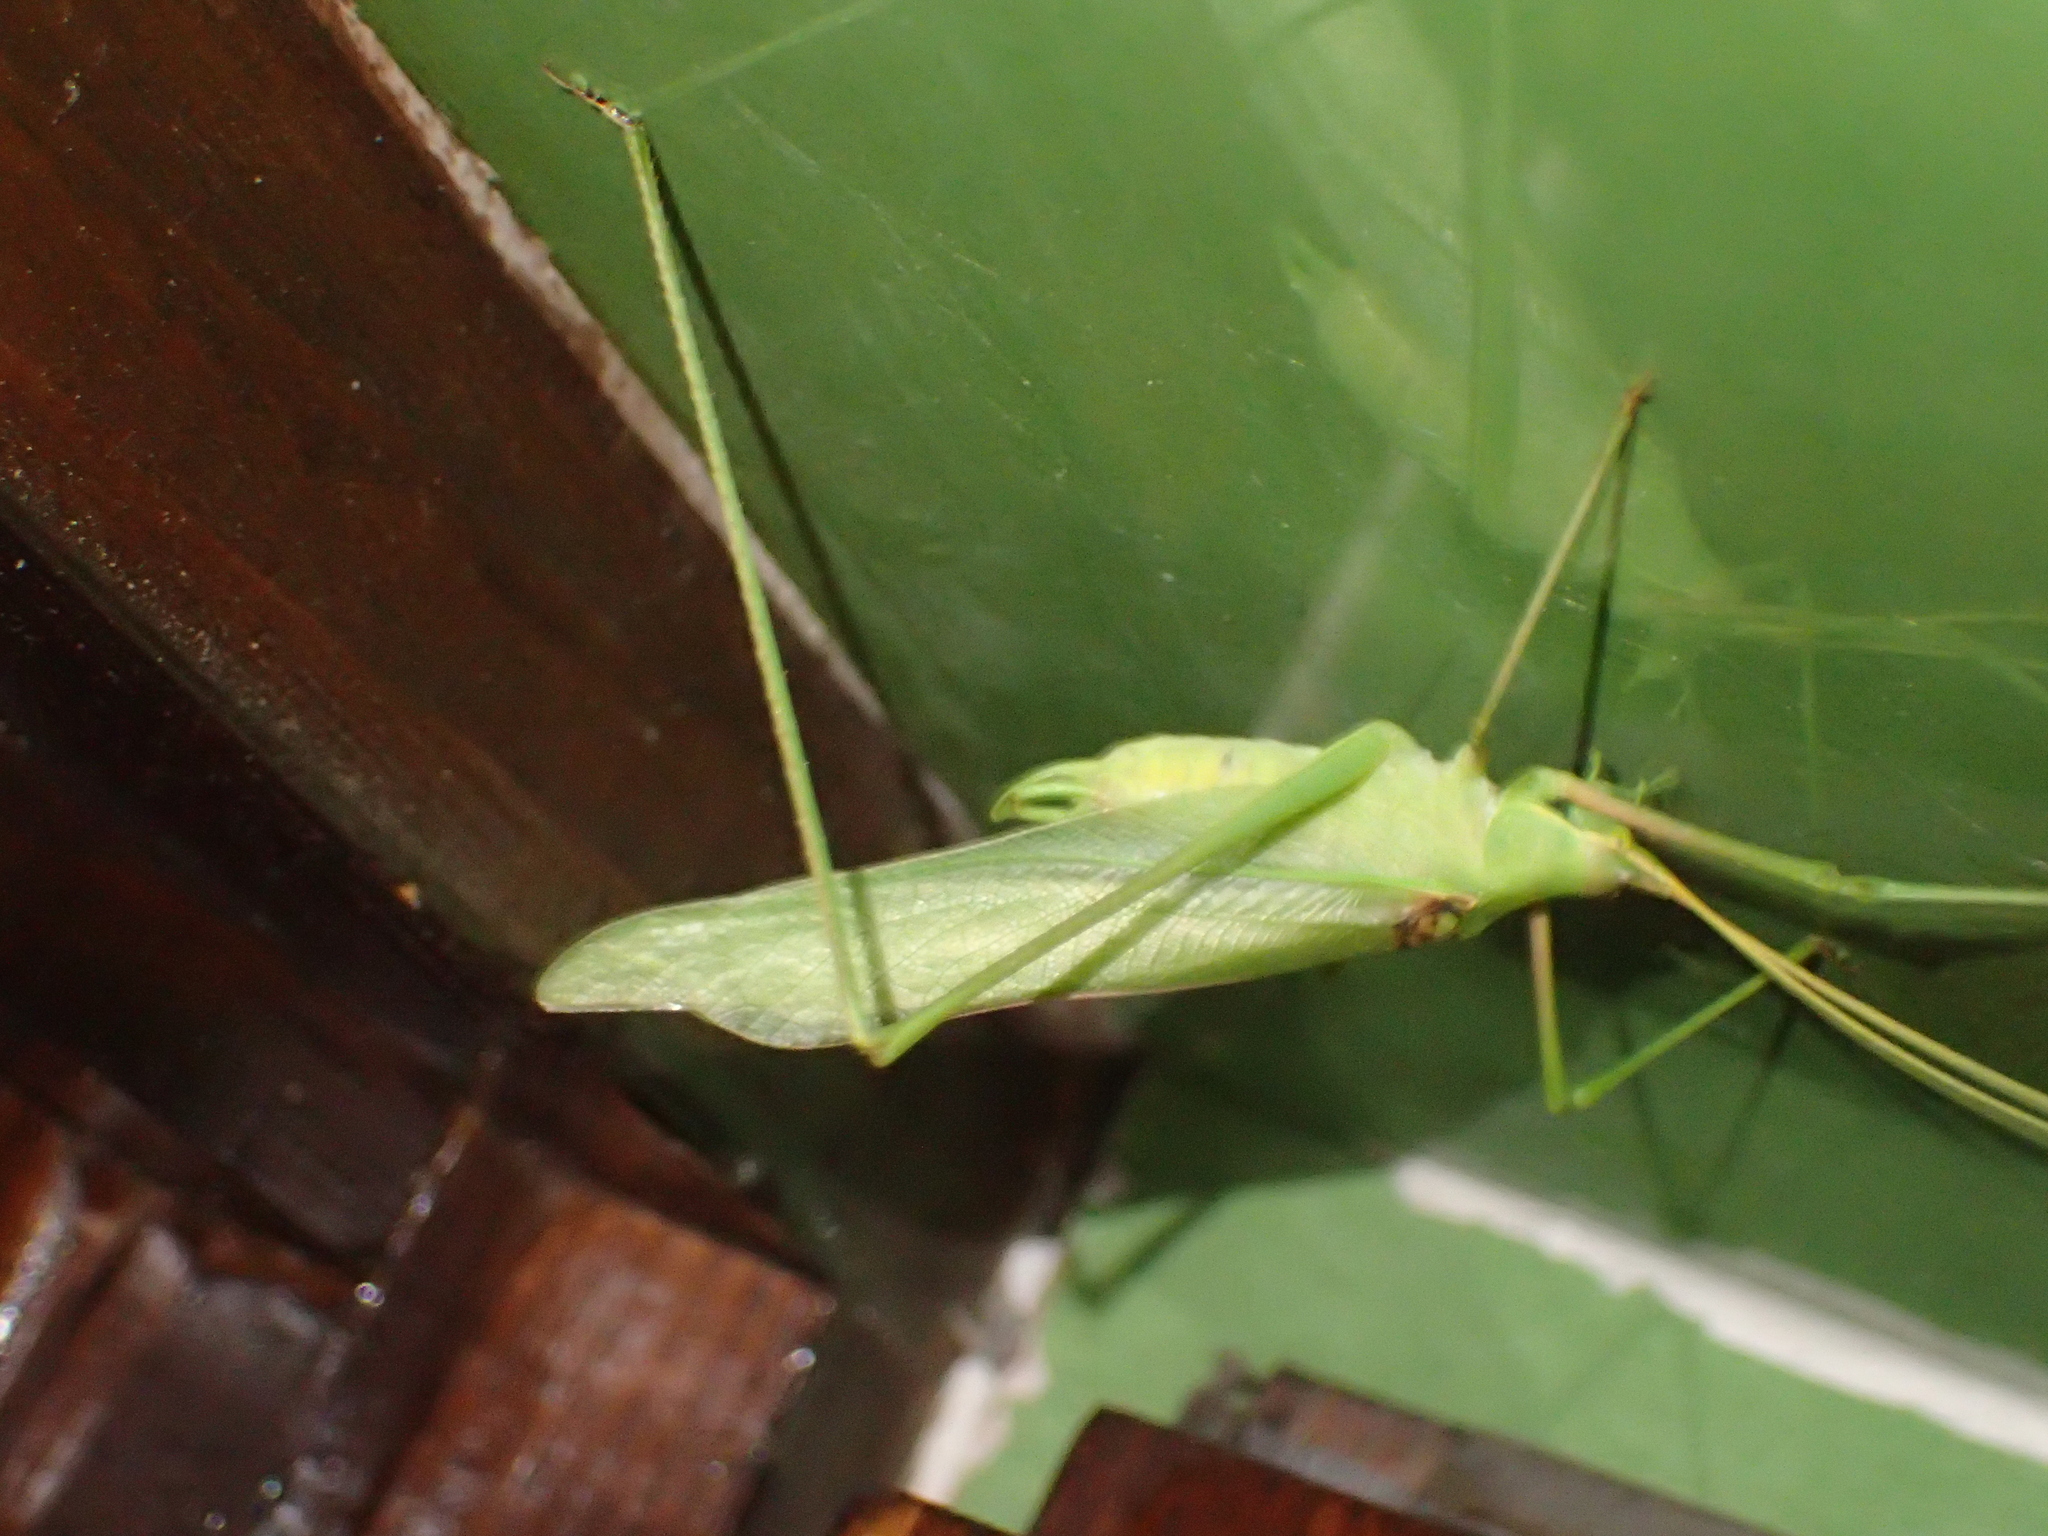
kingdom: Animalia
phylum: Arthropoda
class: Insecta
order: Orthoptera
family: Tettigoniidae
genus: Acrometopa
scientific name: Acrometopa macropoda
